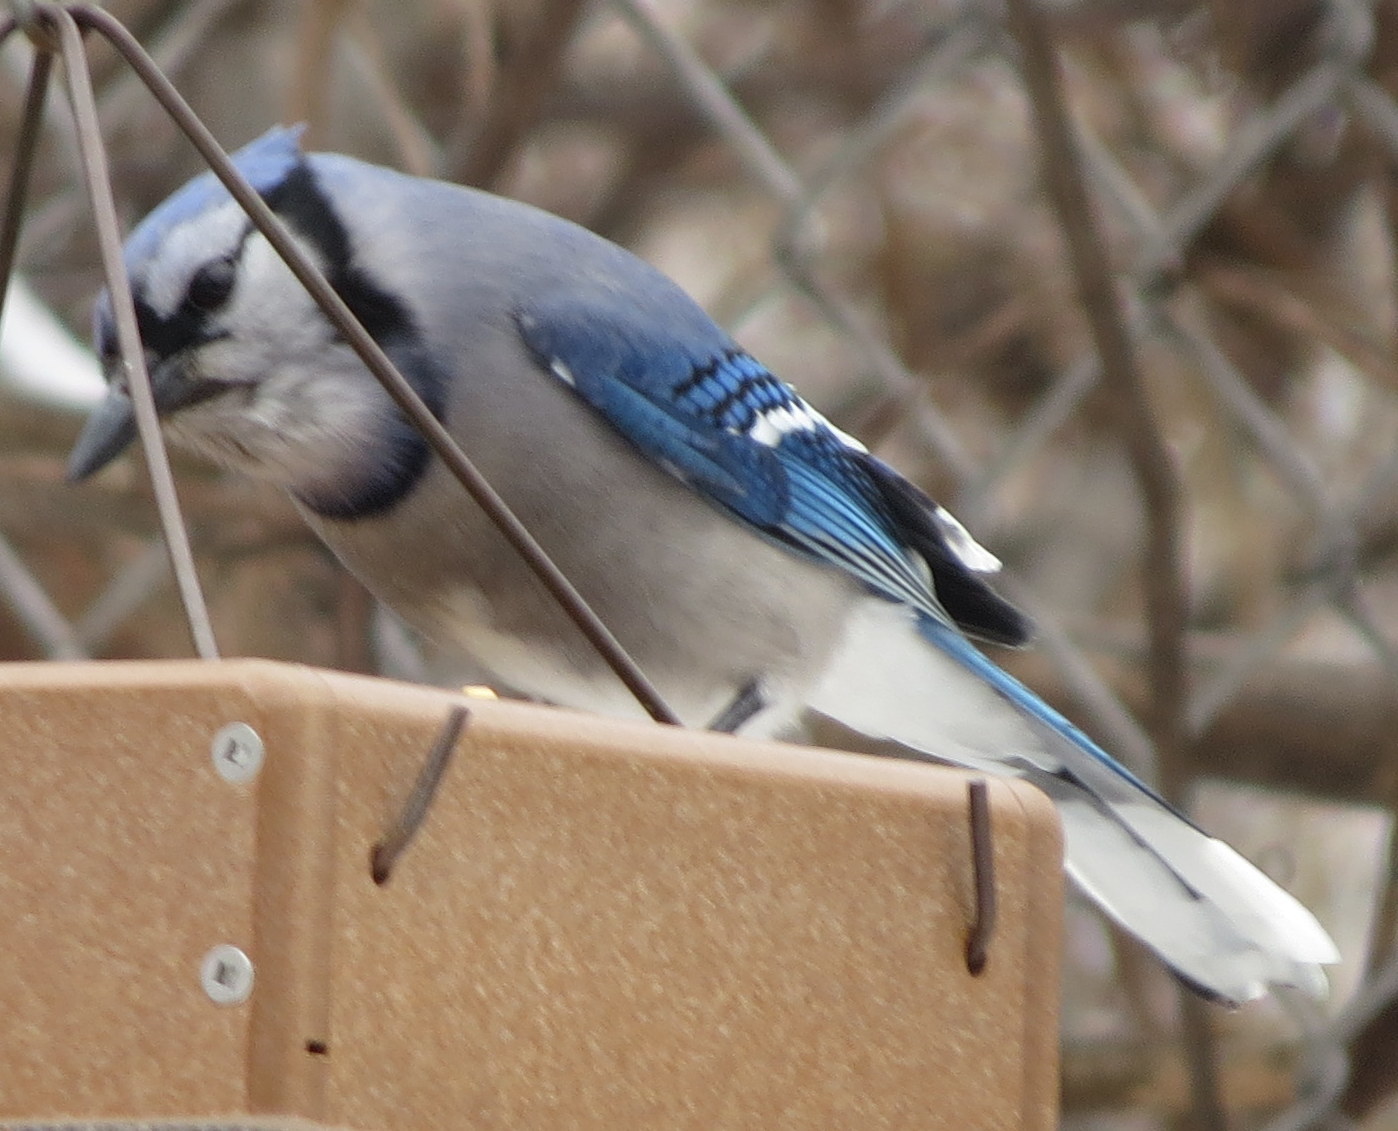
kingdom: Animalia
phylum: Chordata
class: Aves
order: Passeriformes
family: Corvidae
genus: Cyanocitta
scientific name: Cyanocitta cristata
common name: Blue jay
